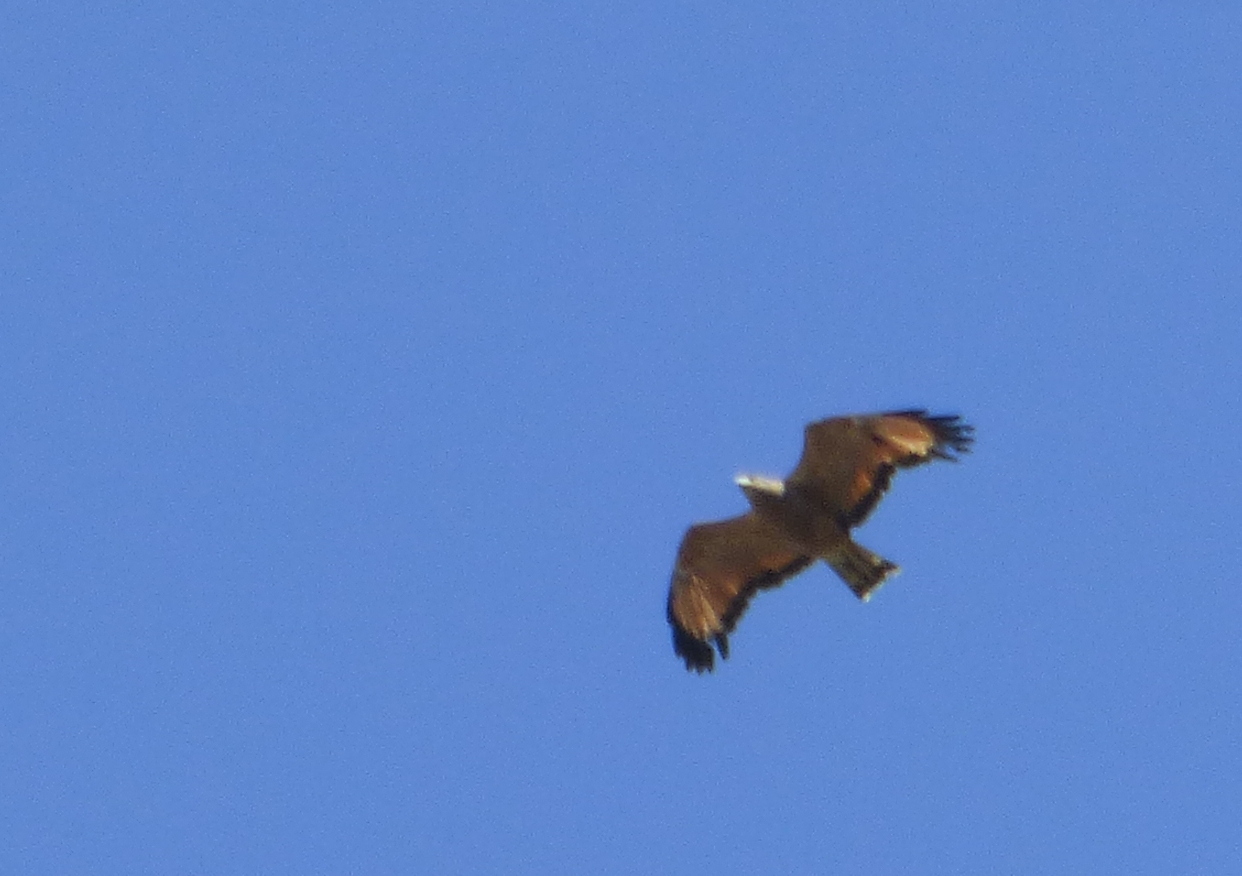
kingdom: Animalia
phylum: Chordata
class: Aves
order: Accipitriformes
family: Accipitridae
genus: Buteogallus
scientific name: Buteogallus meridionalis
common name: Savanna hawk
